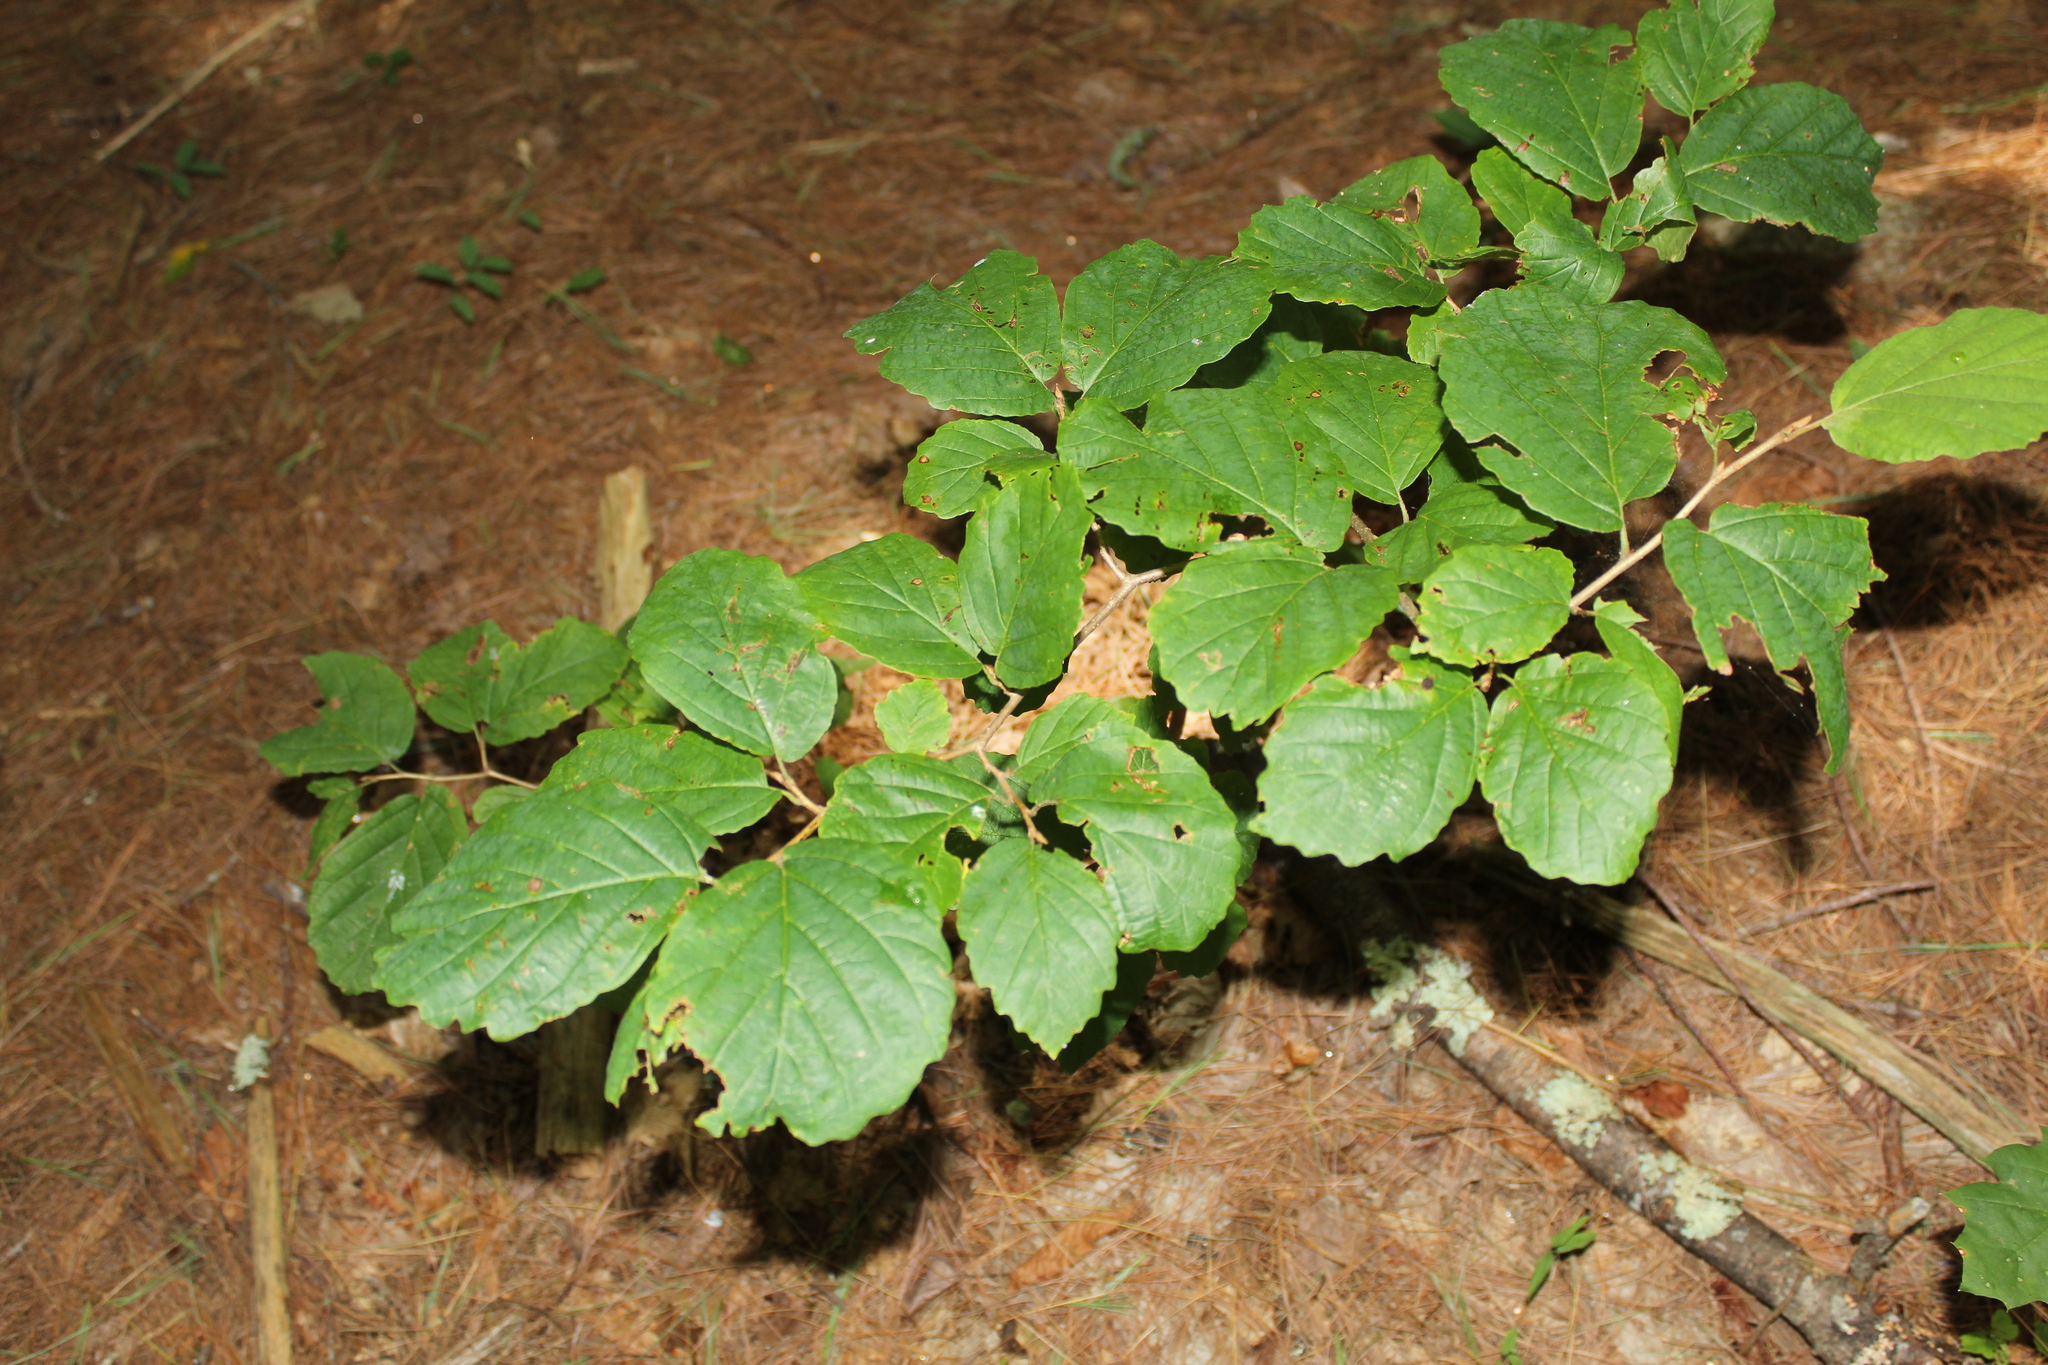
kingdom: Plantae
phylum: Tracheophyta
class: Magnoliopsida
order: Saxifragales
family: Hamamelidaceae
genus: Hamamelis
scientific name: Hamamelis virginiana
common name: Witch-hazel
